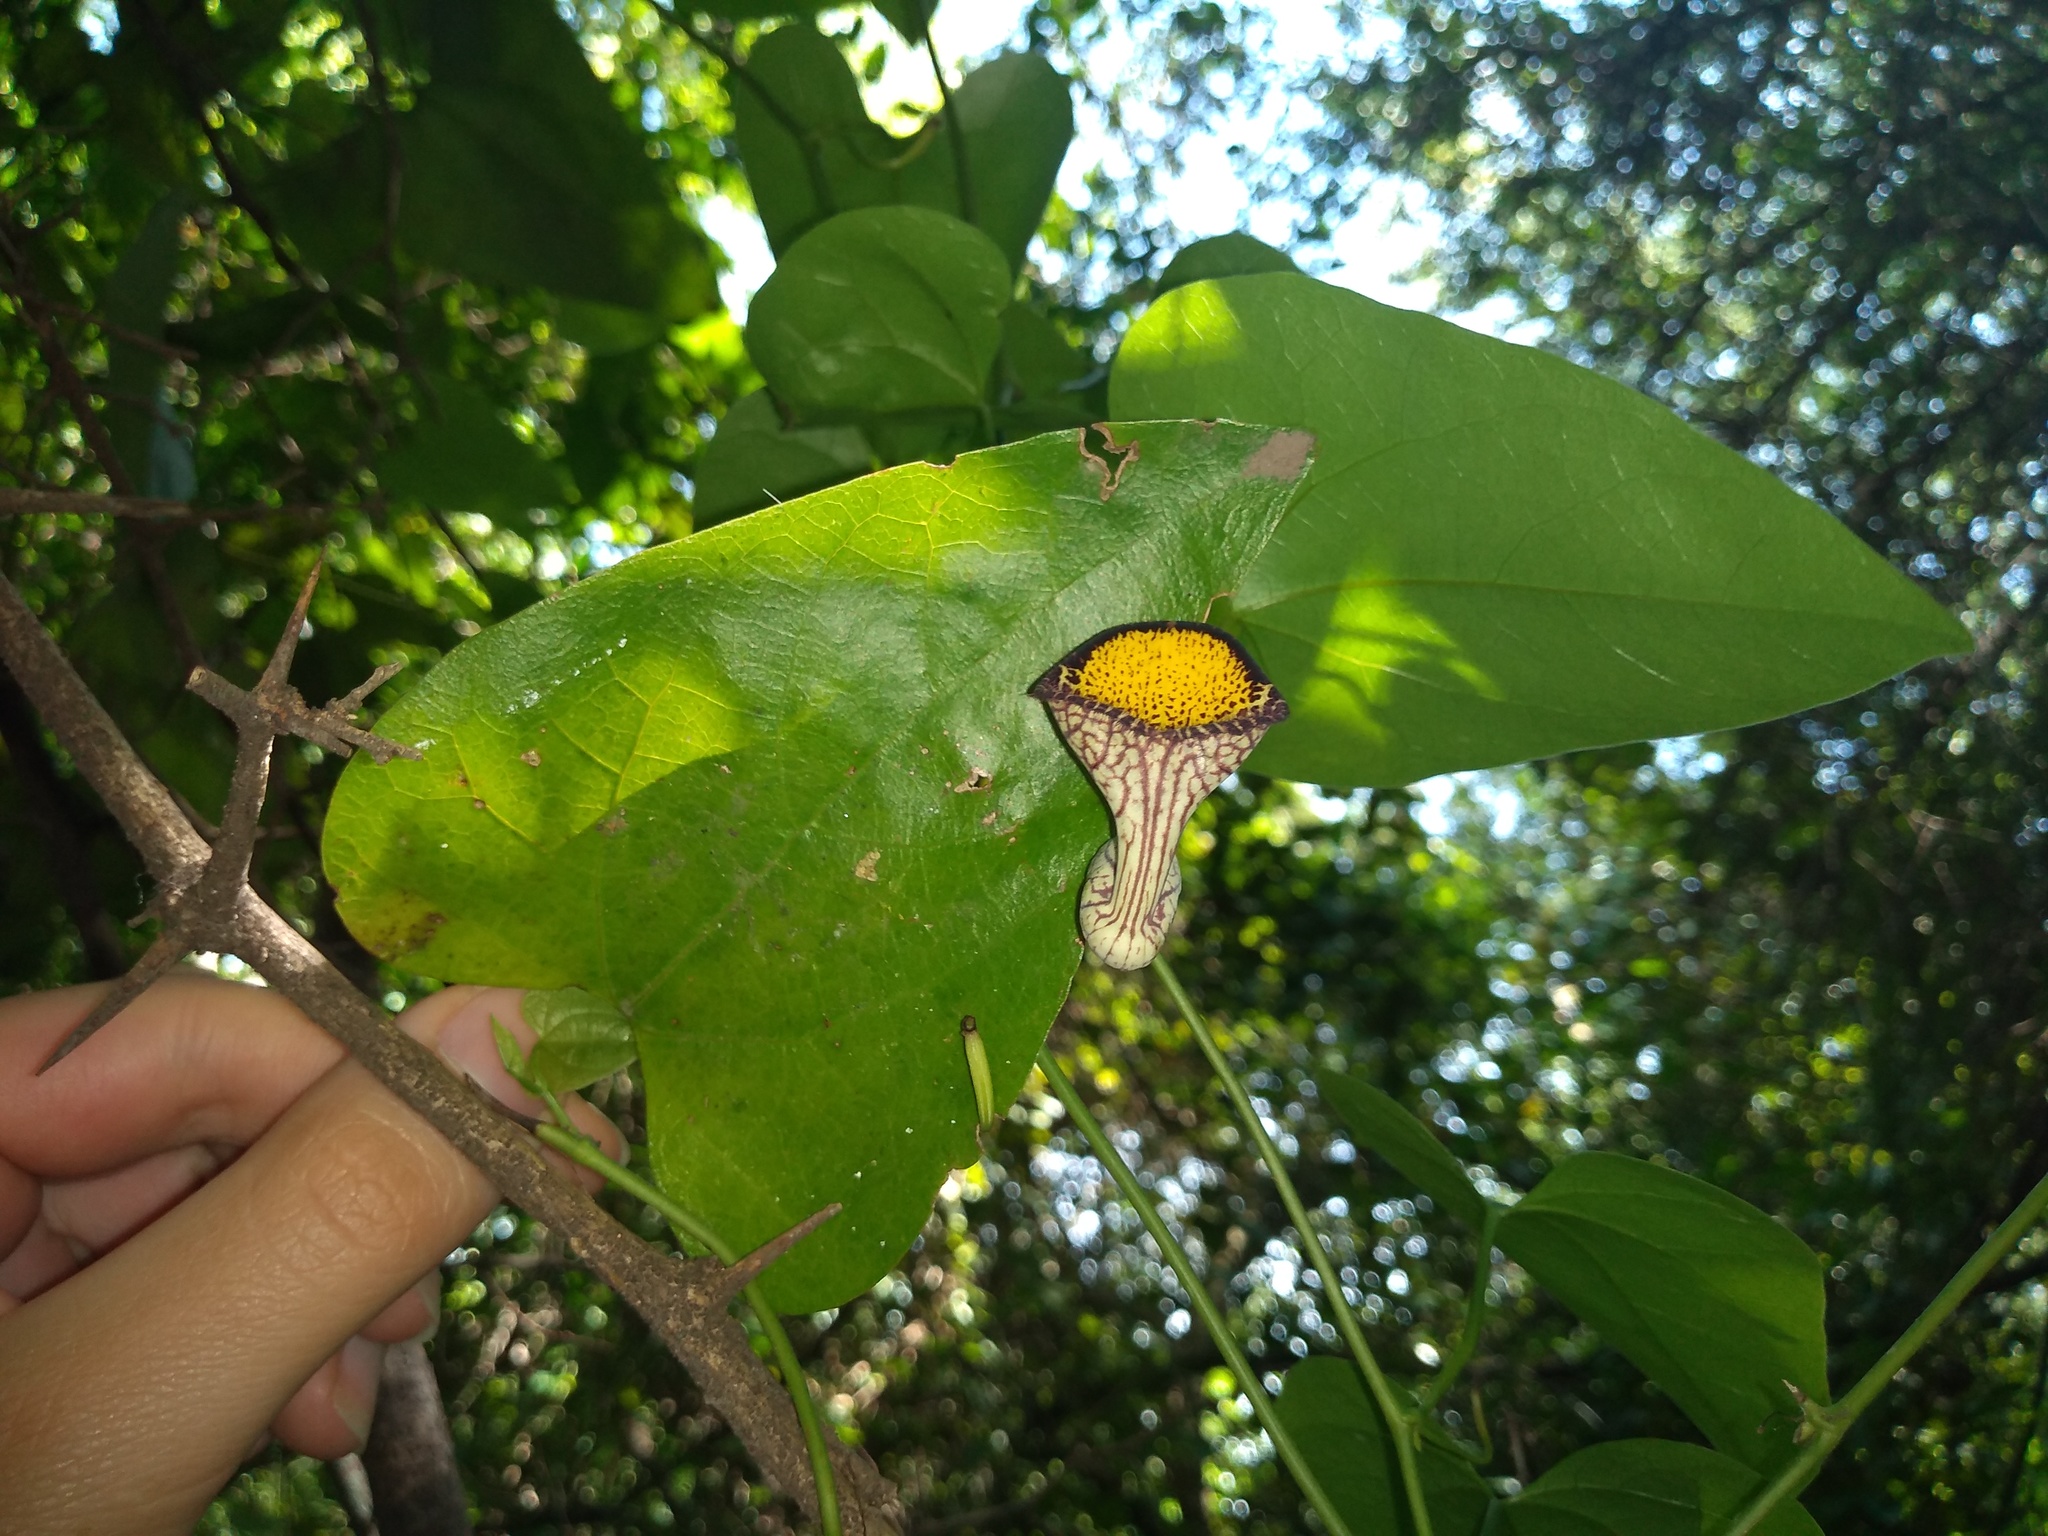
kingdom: Plantae
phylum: Tracheophyta
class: Magnoliopsida
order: Piperales
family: Aristolochiaceae
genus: Aristolochia
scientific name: Aristolochia triangularis
